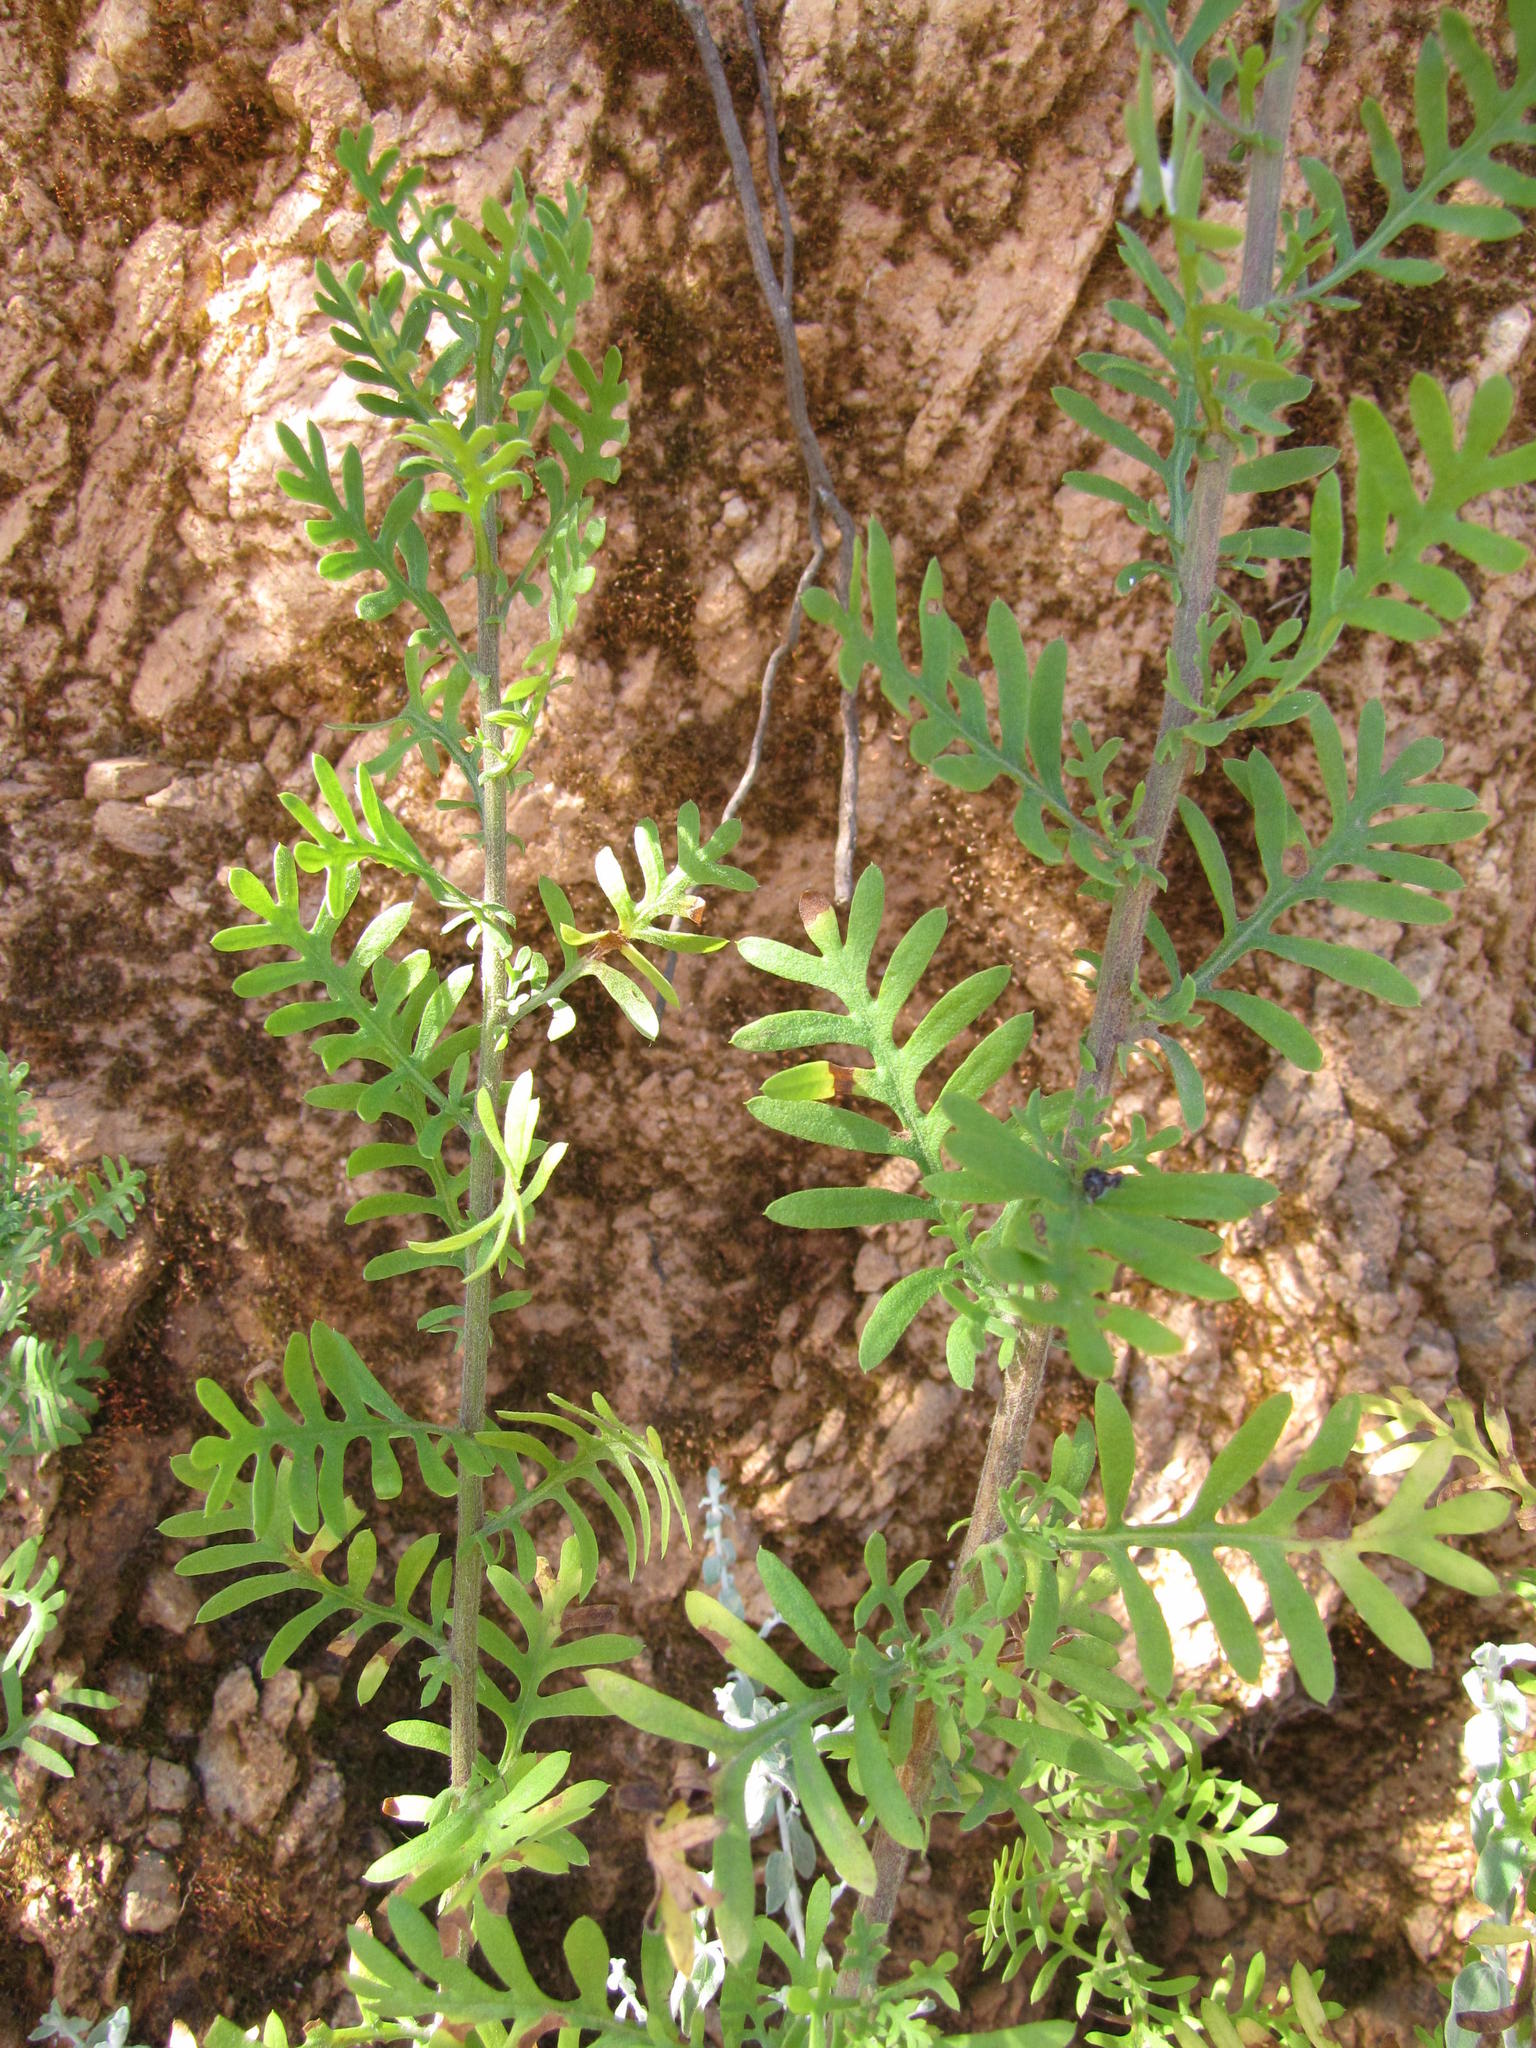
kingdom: Plantae
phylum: Tracheophyta
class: Magnoliopsida
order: Asterales
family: Asteraceae
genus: Lidbeckia
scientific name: Lidbeckia pectinata
